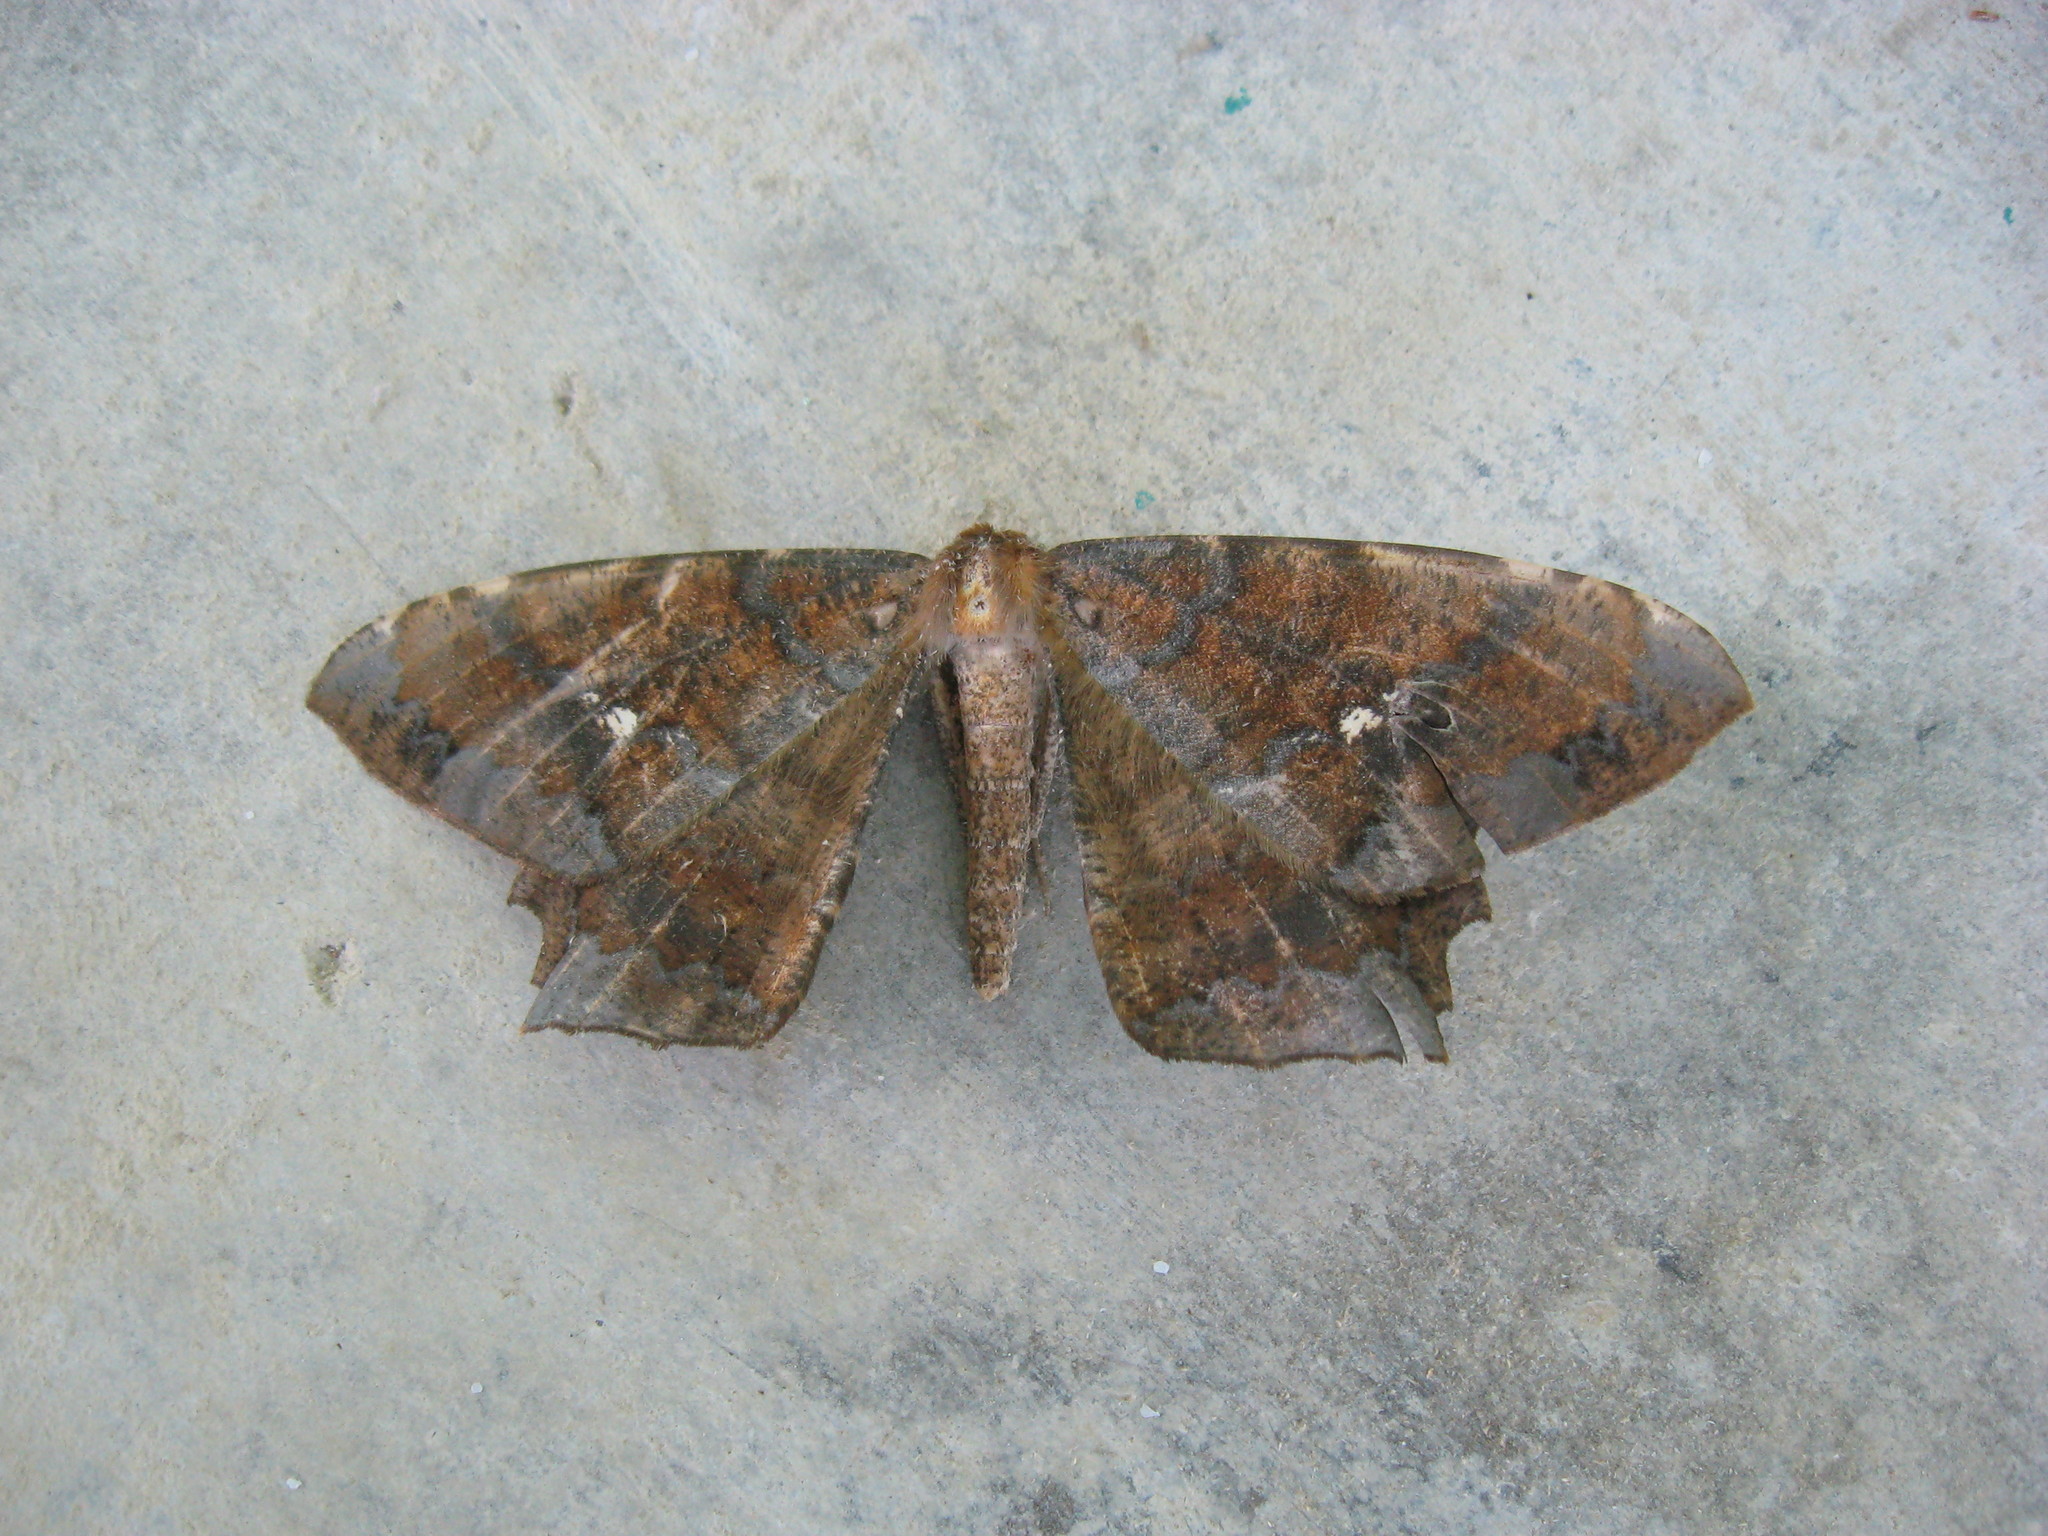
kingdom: Animalia
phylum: Arthropoda
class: Insecta
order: Lepidoptera
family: Geometridae
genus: Amblychia
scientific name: Amblychia angeronaria
